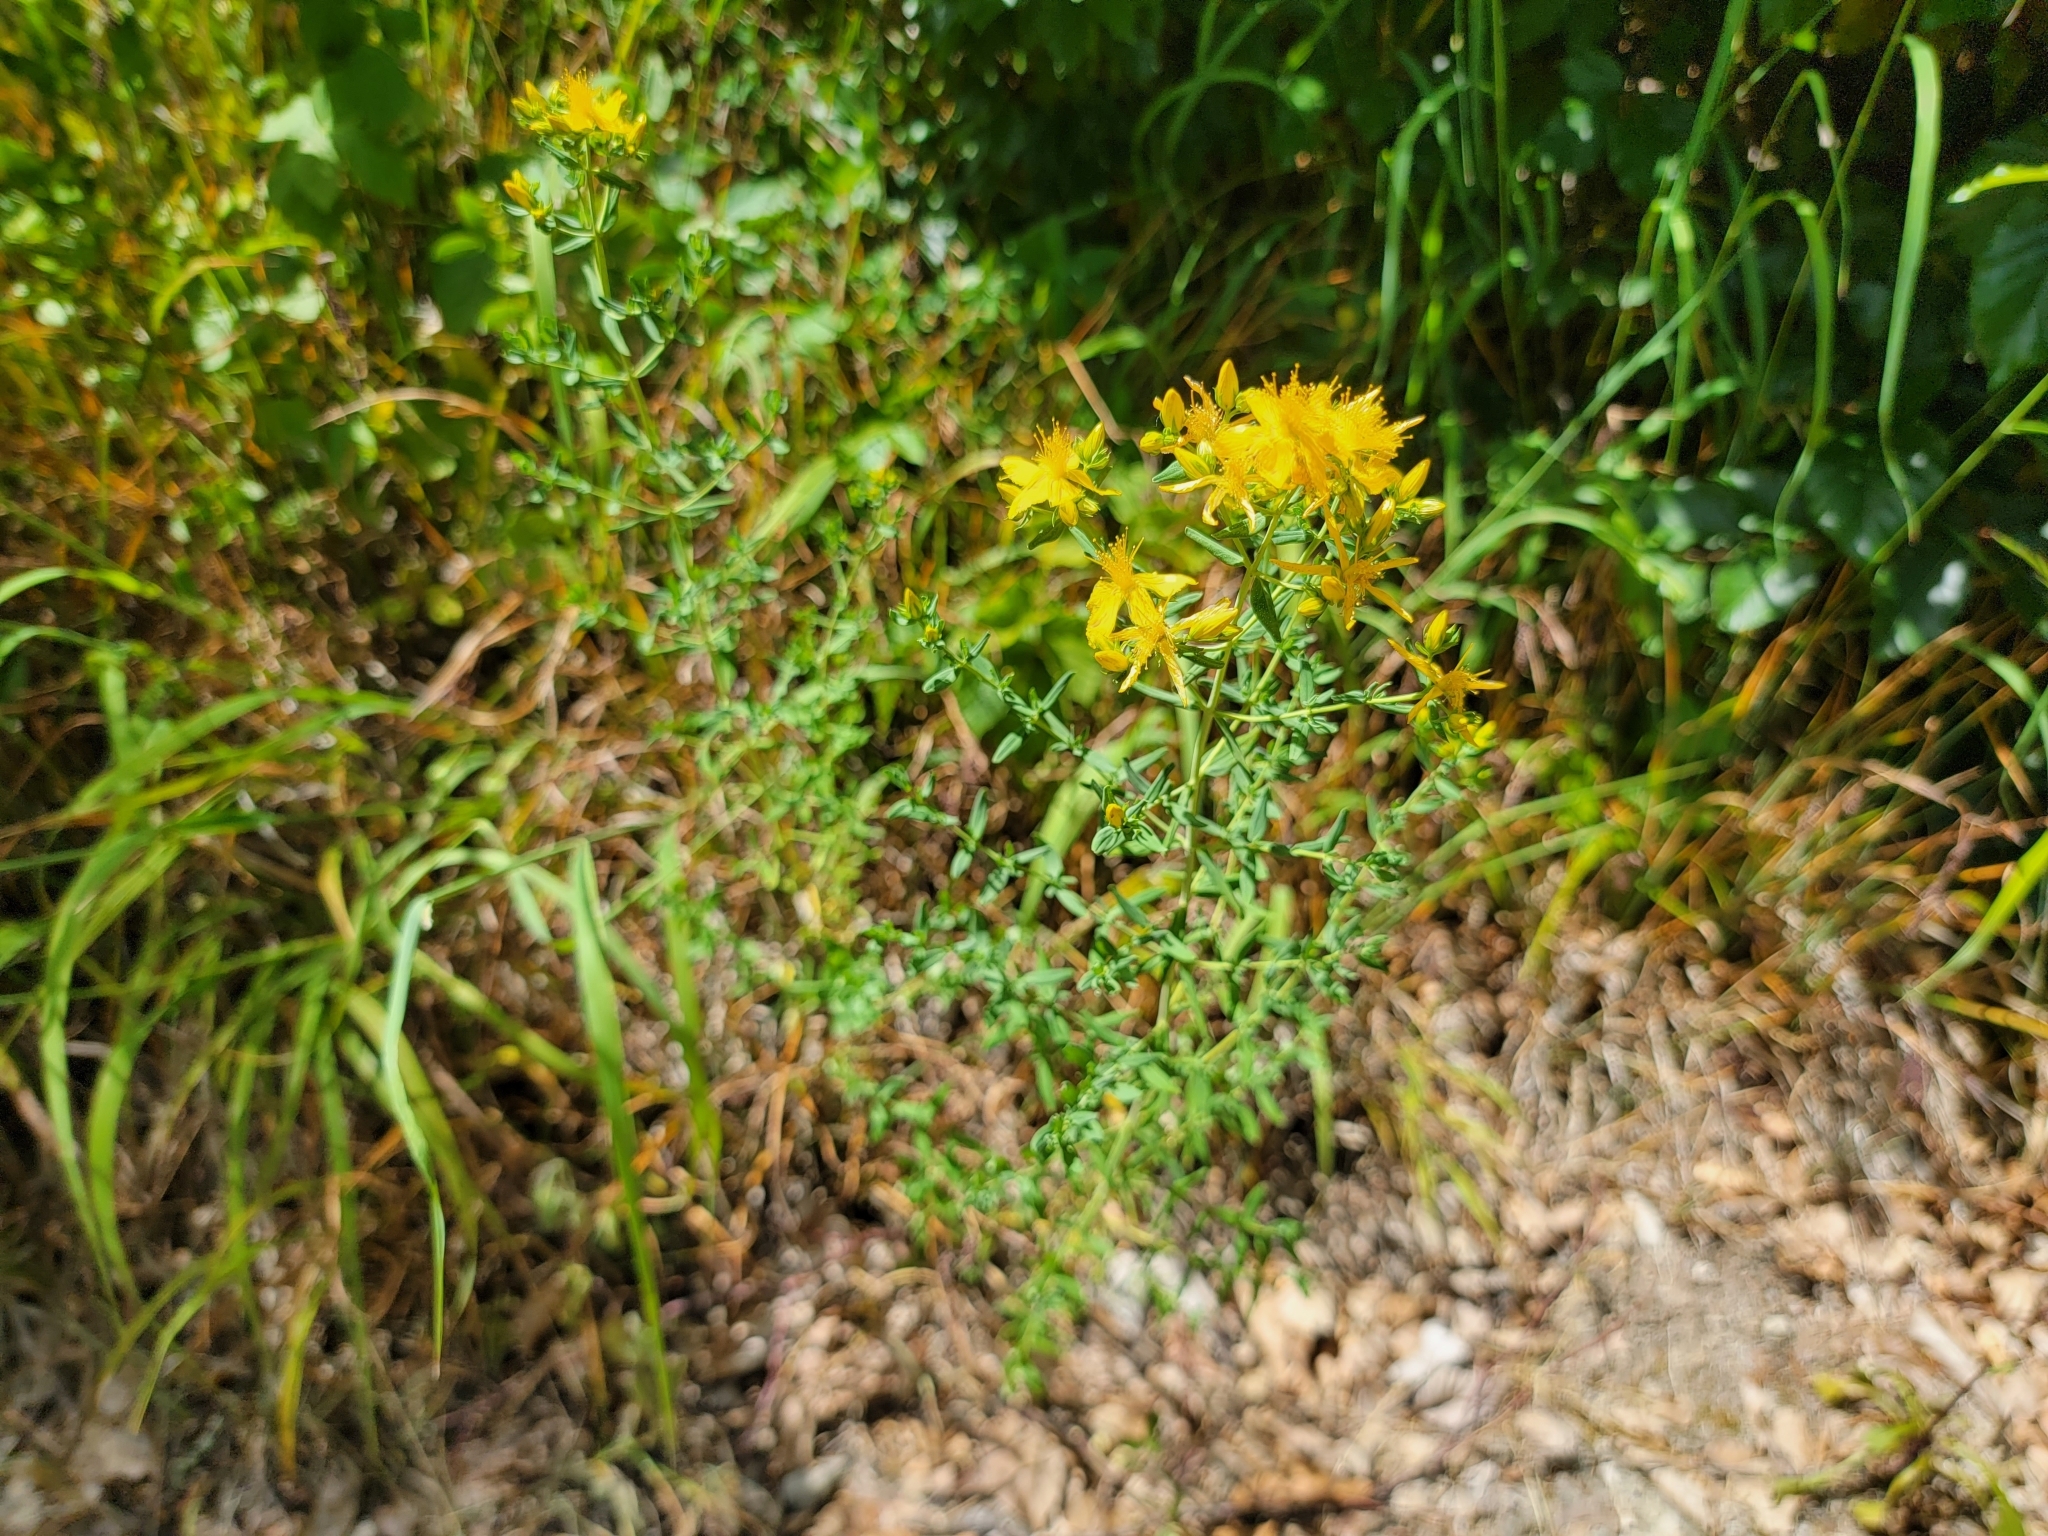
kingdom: Plantae
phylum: Tracheophyta
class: Magnoliopsida
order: Malpighiales
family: Hypericaceae
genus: Hypericum
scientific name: Hypericum perforatum
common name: Common st. johnswort
